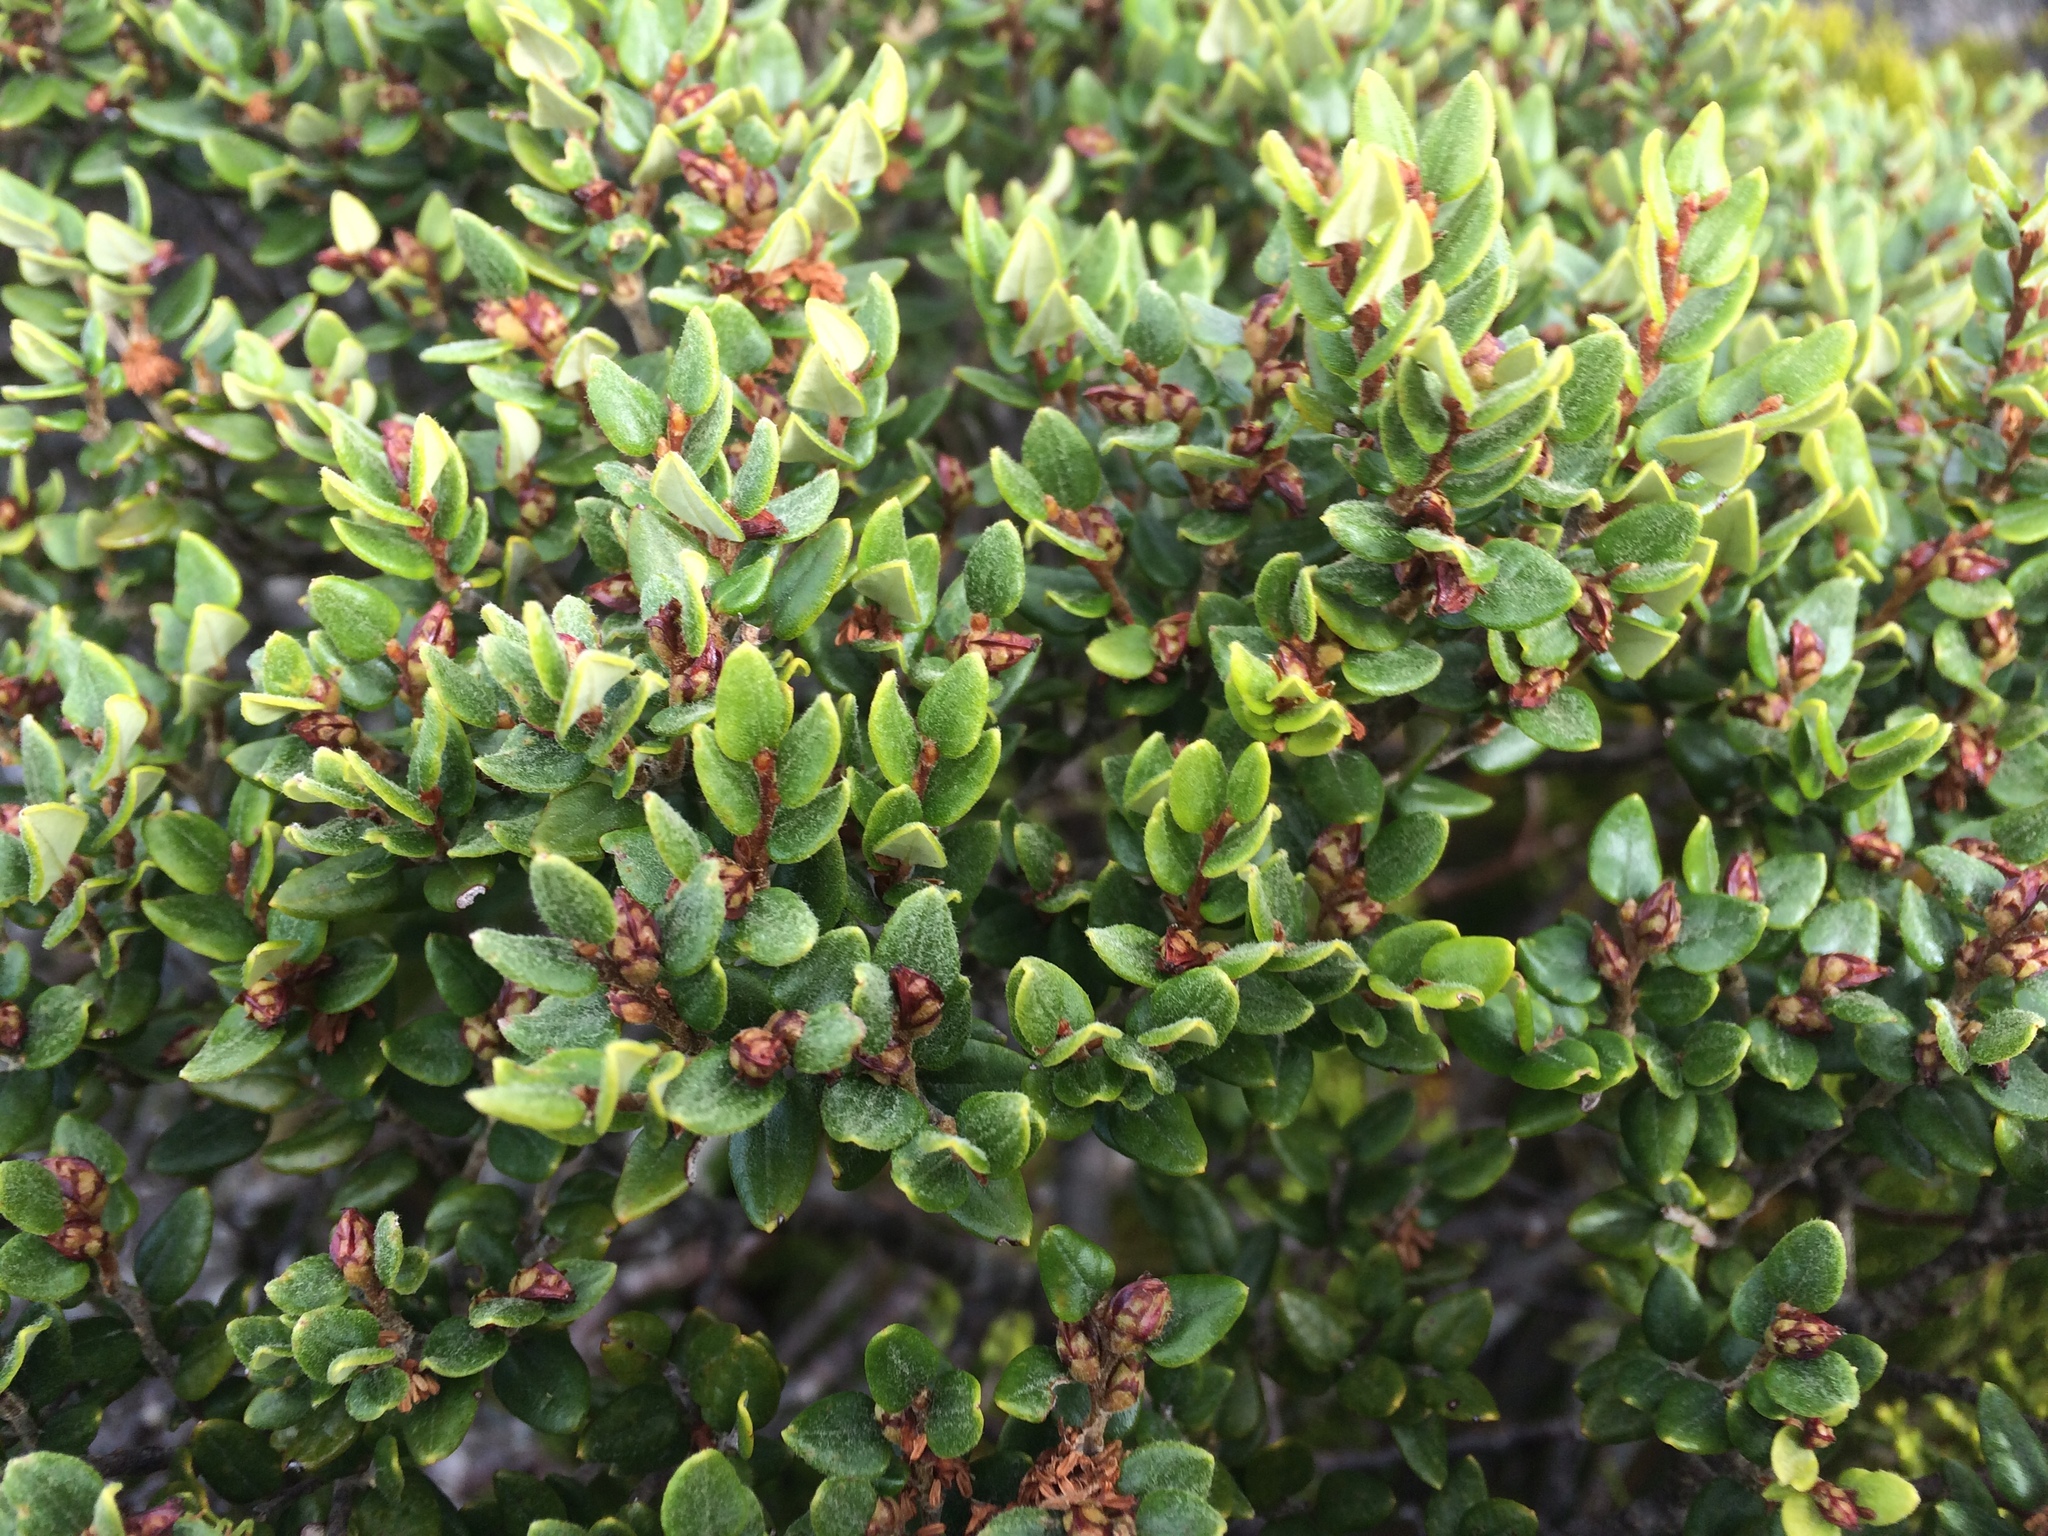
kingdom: Plantae
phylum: Tracheophyta
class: Magnoliopsida
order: Fagales
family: Nothofagaceae
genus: Nothofagus
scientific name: Nothofagus cliffortioides
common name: Mountain beech
